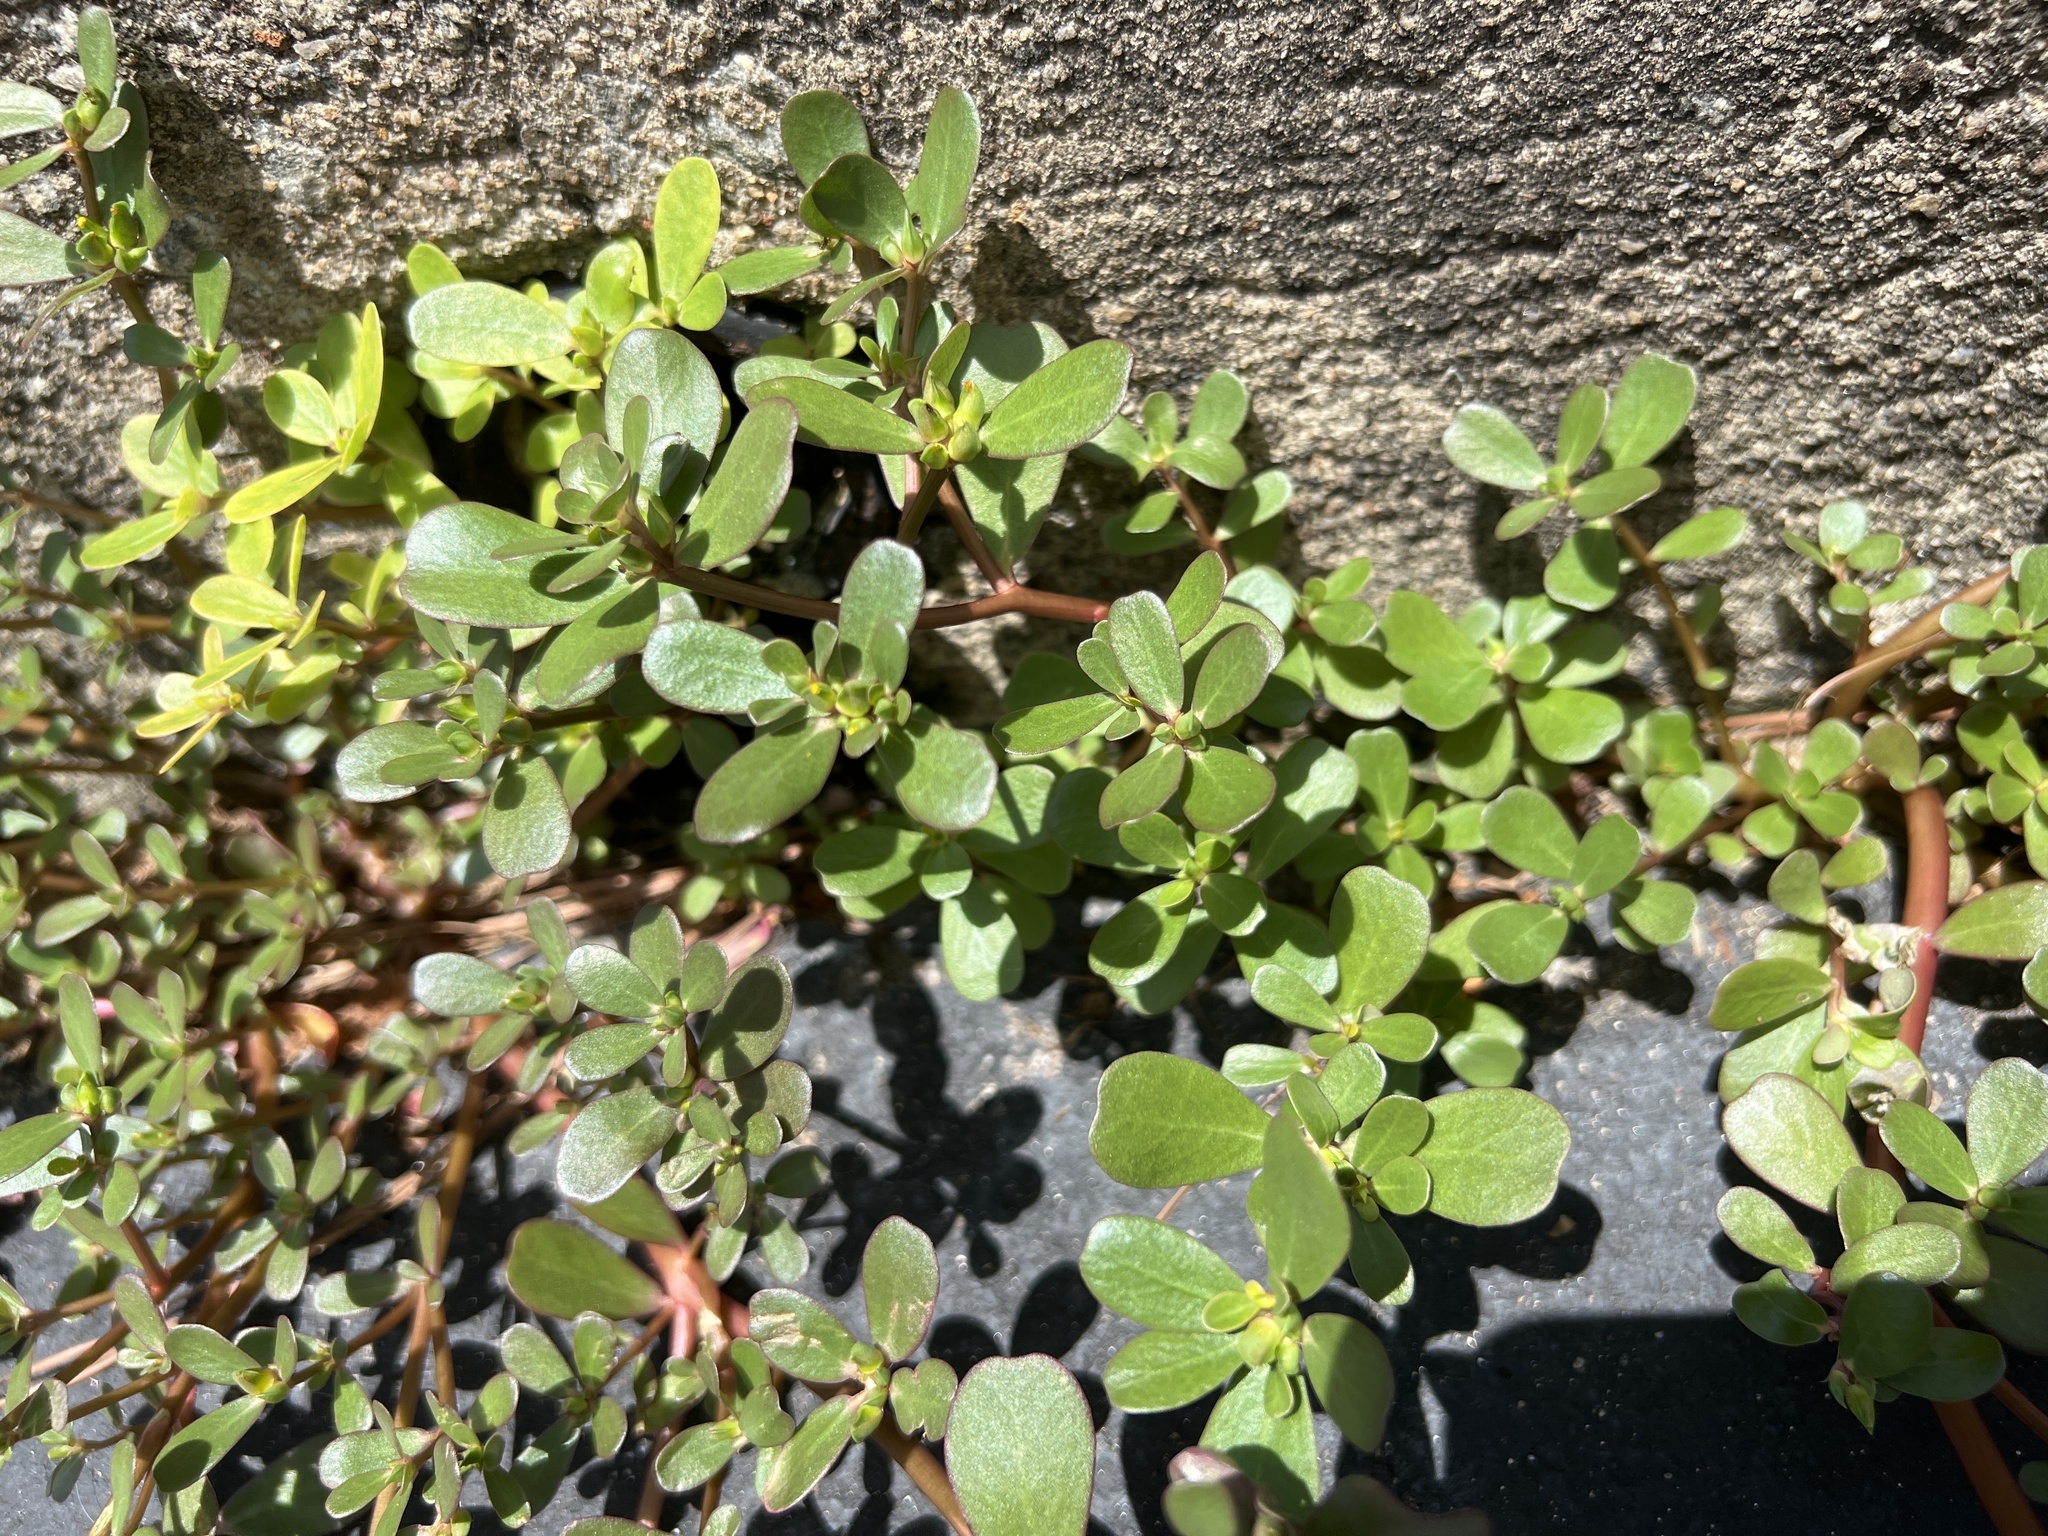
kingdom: Plantae
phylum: Tracheophyta
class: Magnoliopsida
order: Caryophyllales
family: Portulacaceae
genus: Portulaca
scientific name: Portulaca oleracea
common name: Common purslane
